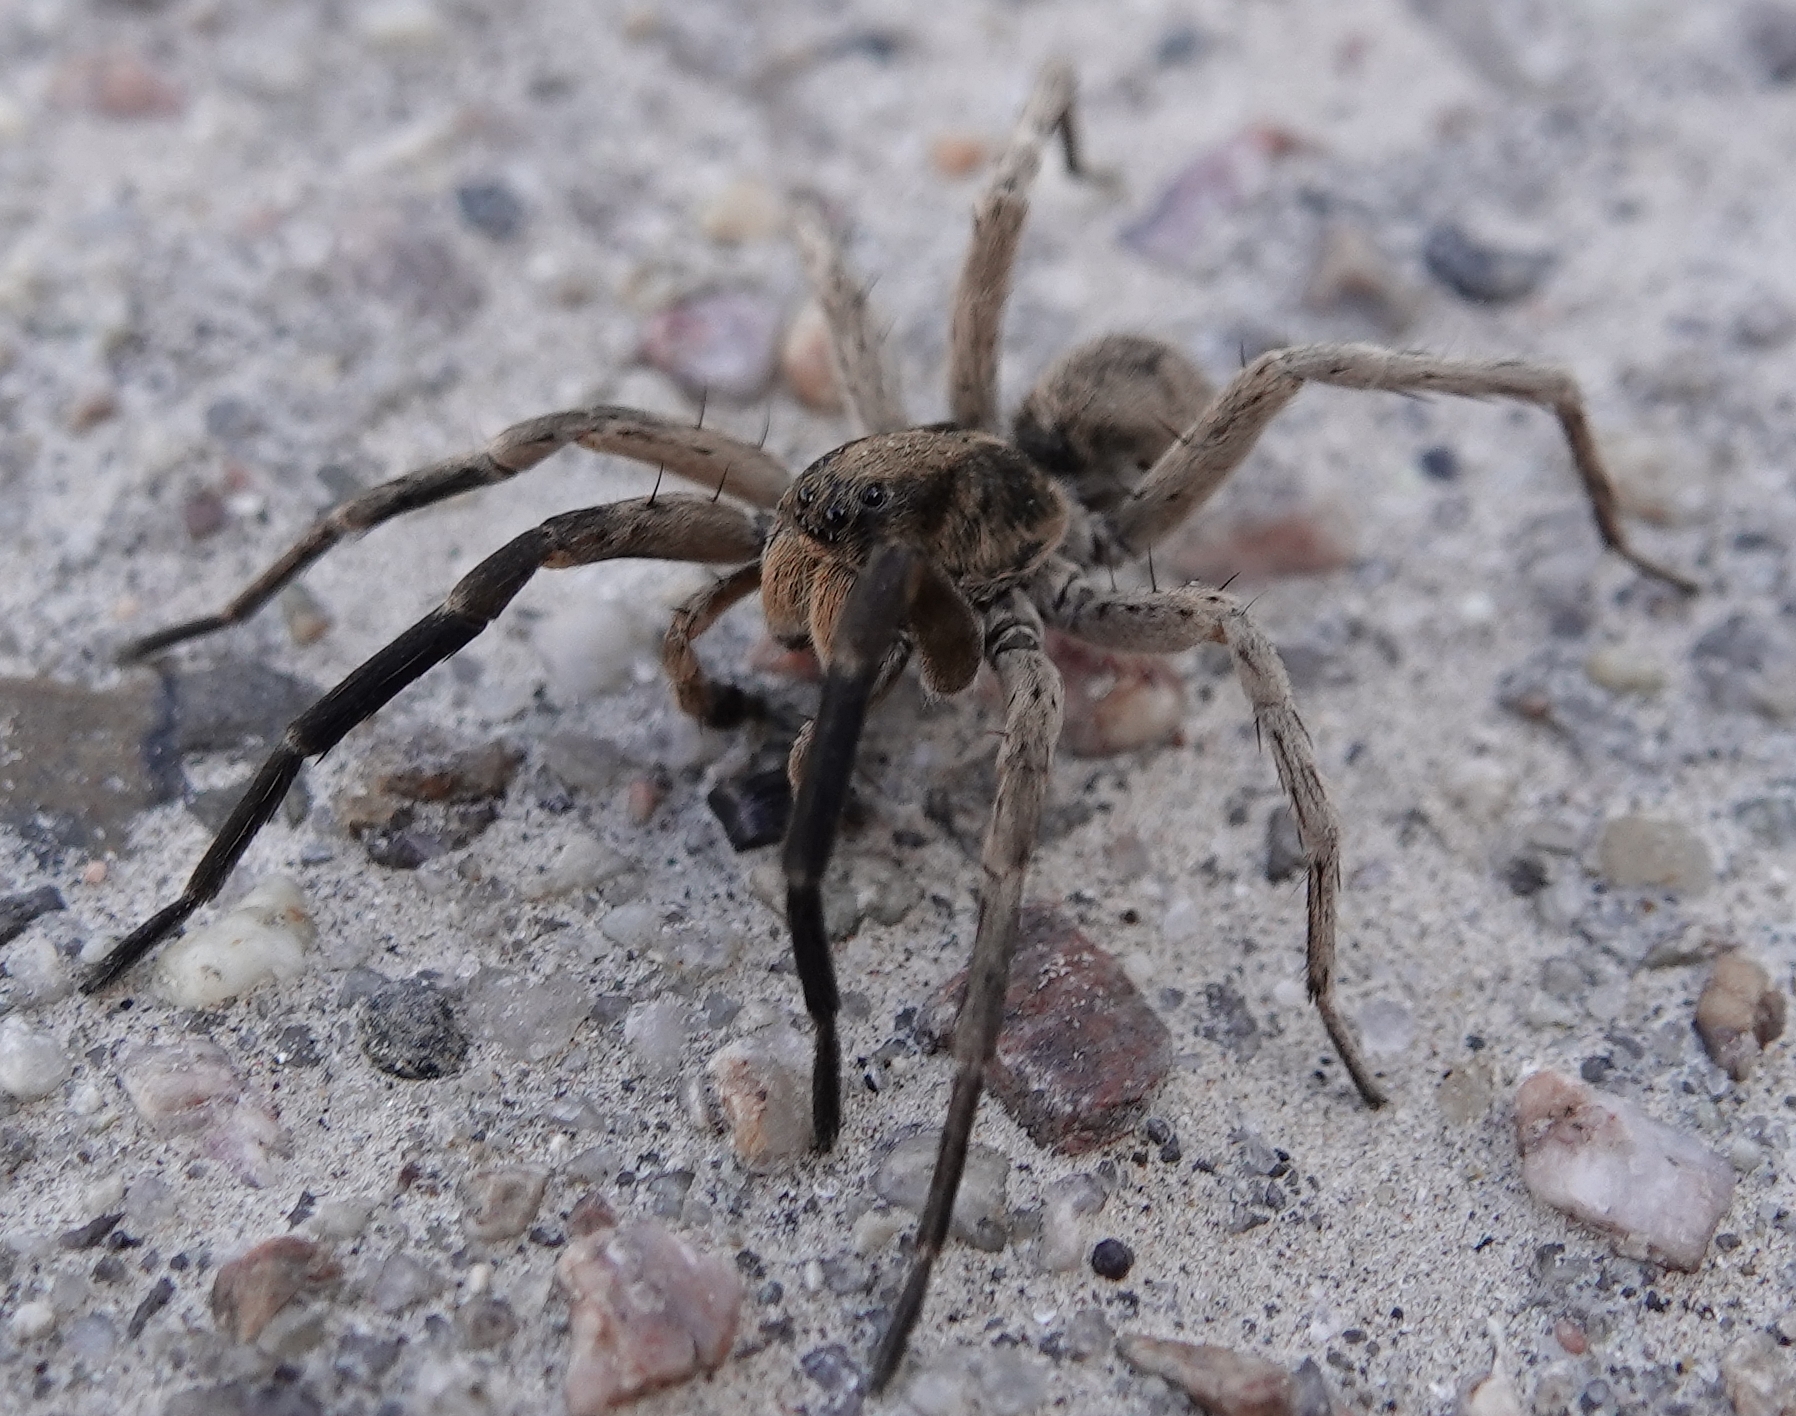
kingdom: Animalia
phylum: Arthropoda
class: Arachnida
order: Araneae
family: Lycosidae
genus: Geolycosa
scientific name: Geolycosa missouriensis
